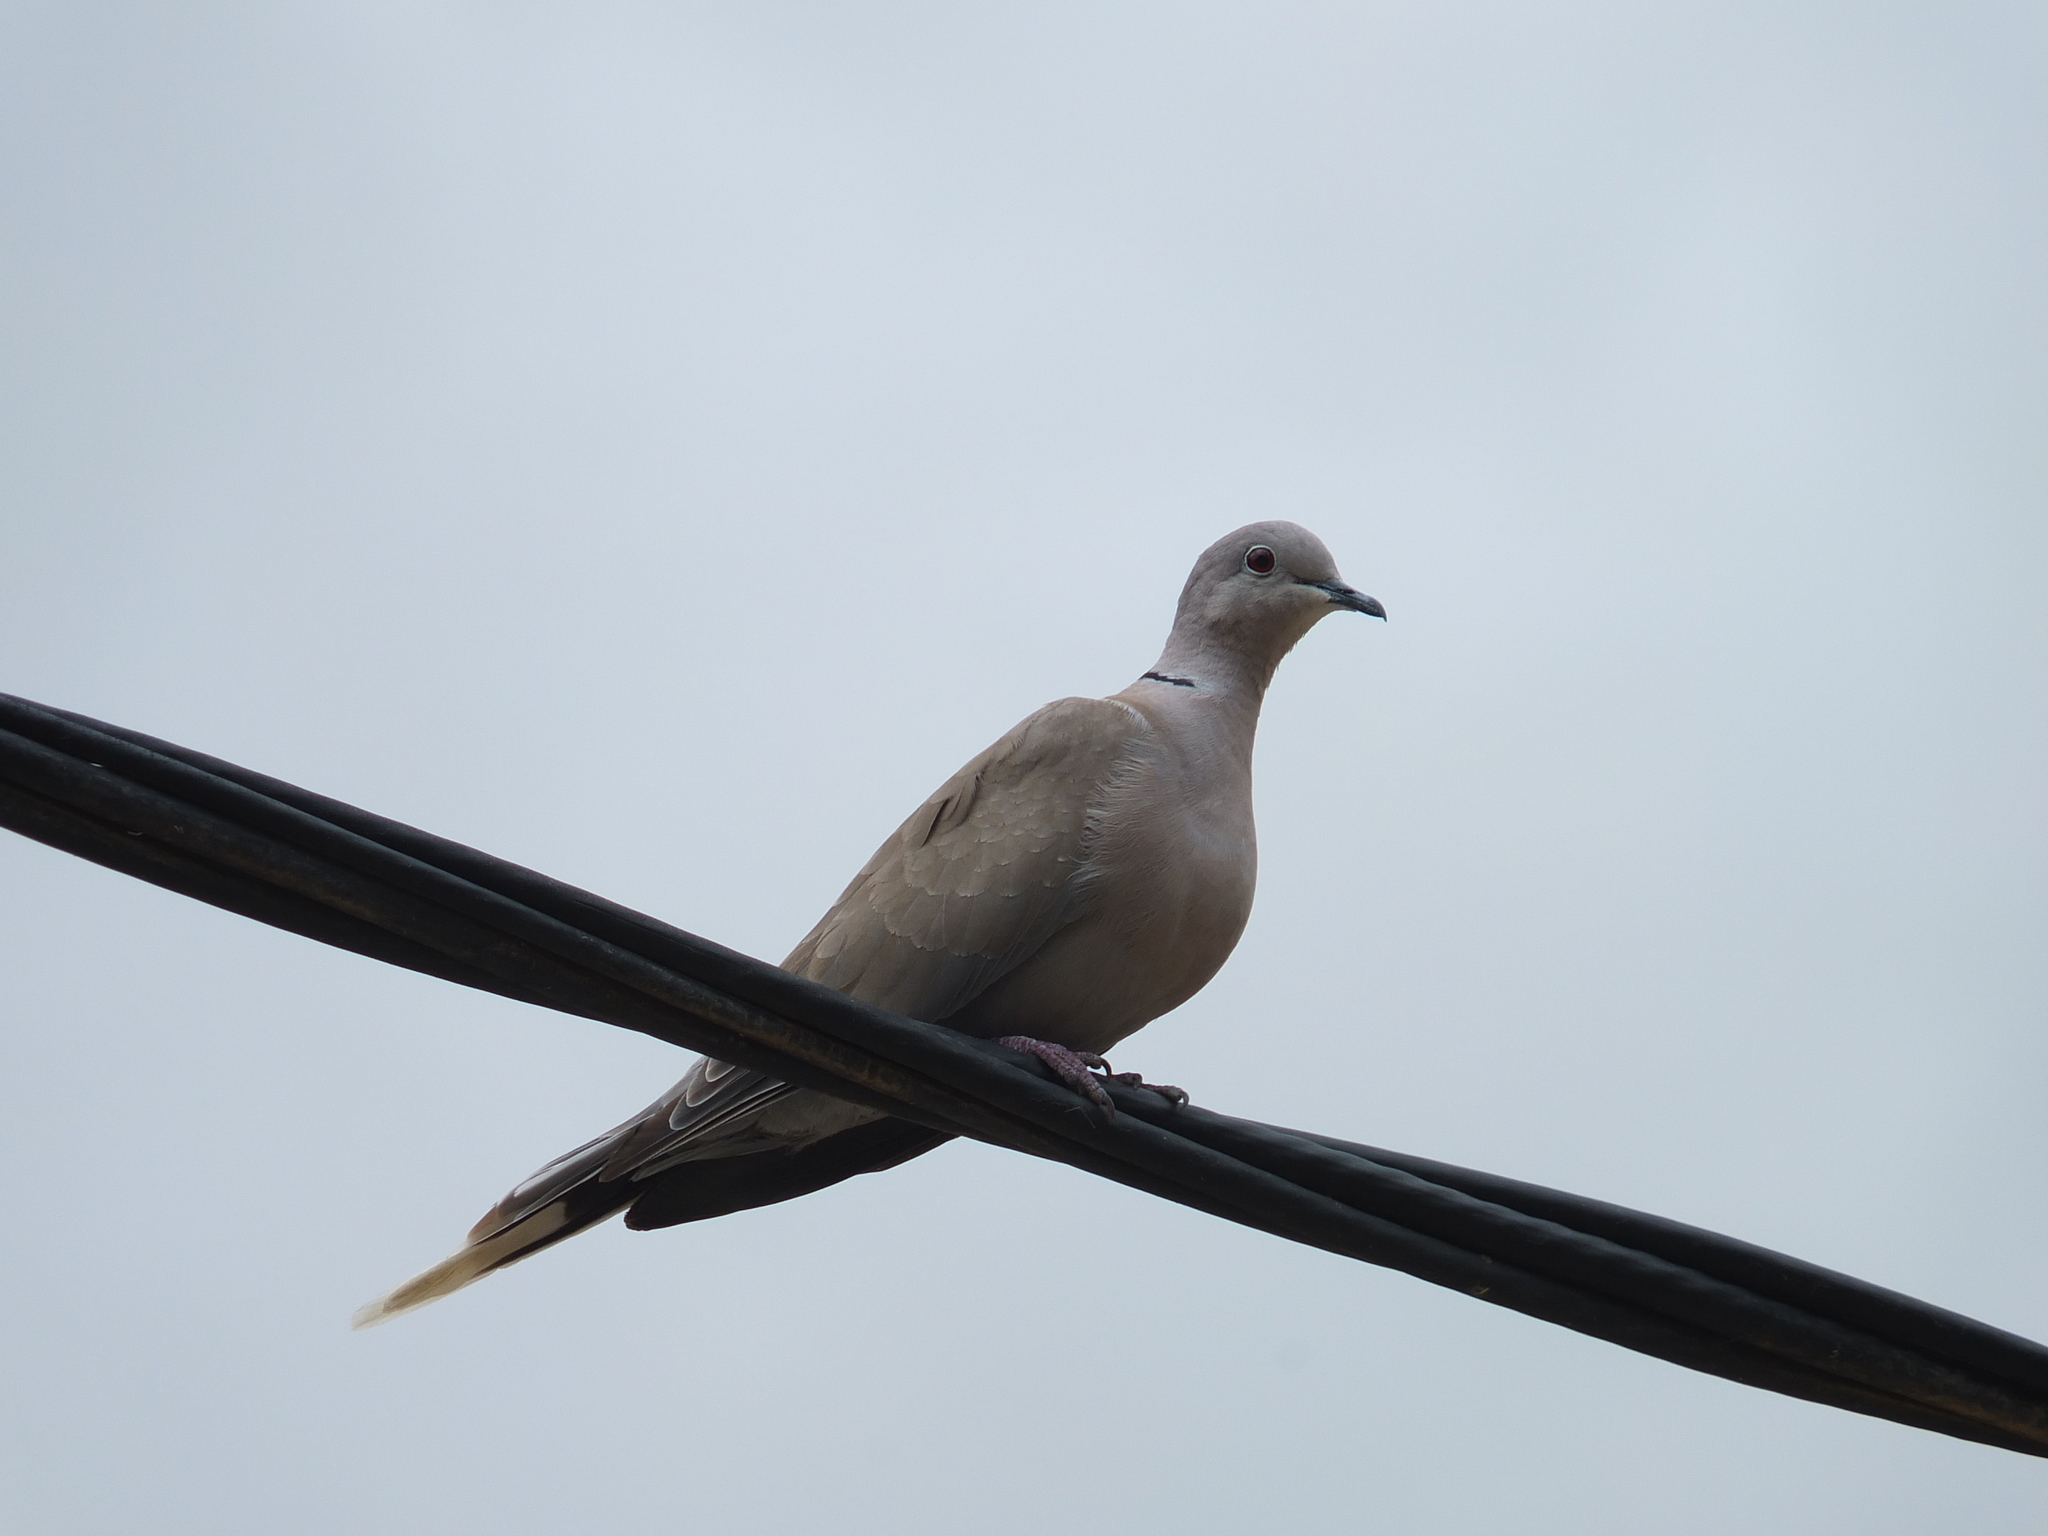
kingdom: Animalia
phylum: Chordata
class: Aves
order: Columbiformes
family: Columbidae
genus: Streptopelia
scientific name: Streptopelia decaocto
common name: Eurasian collared dove
